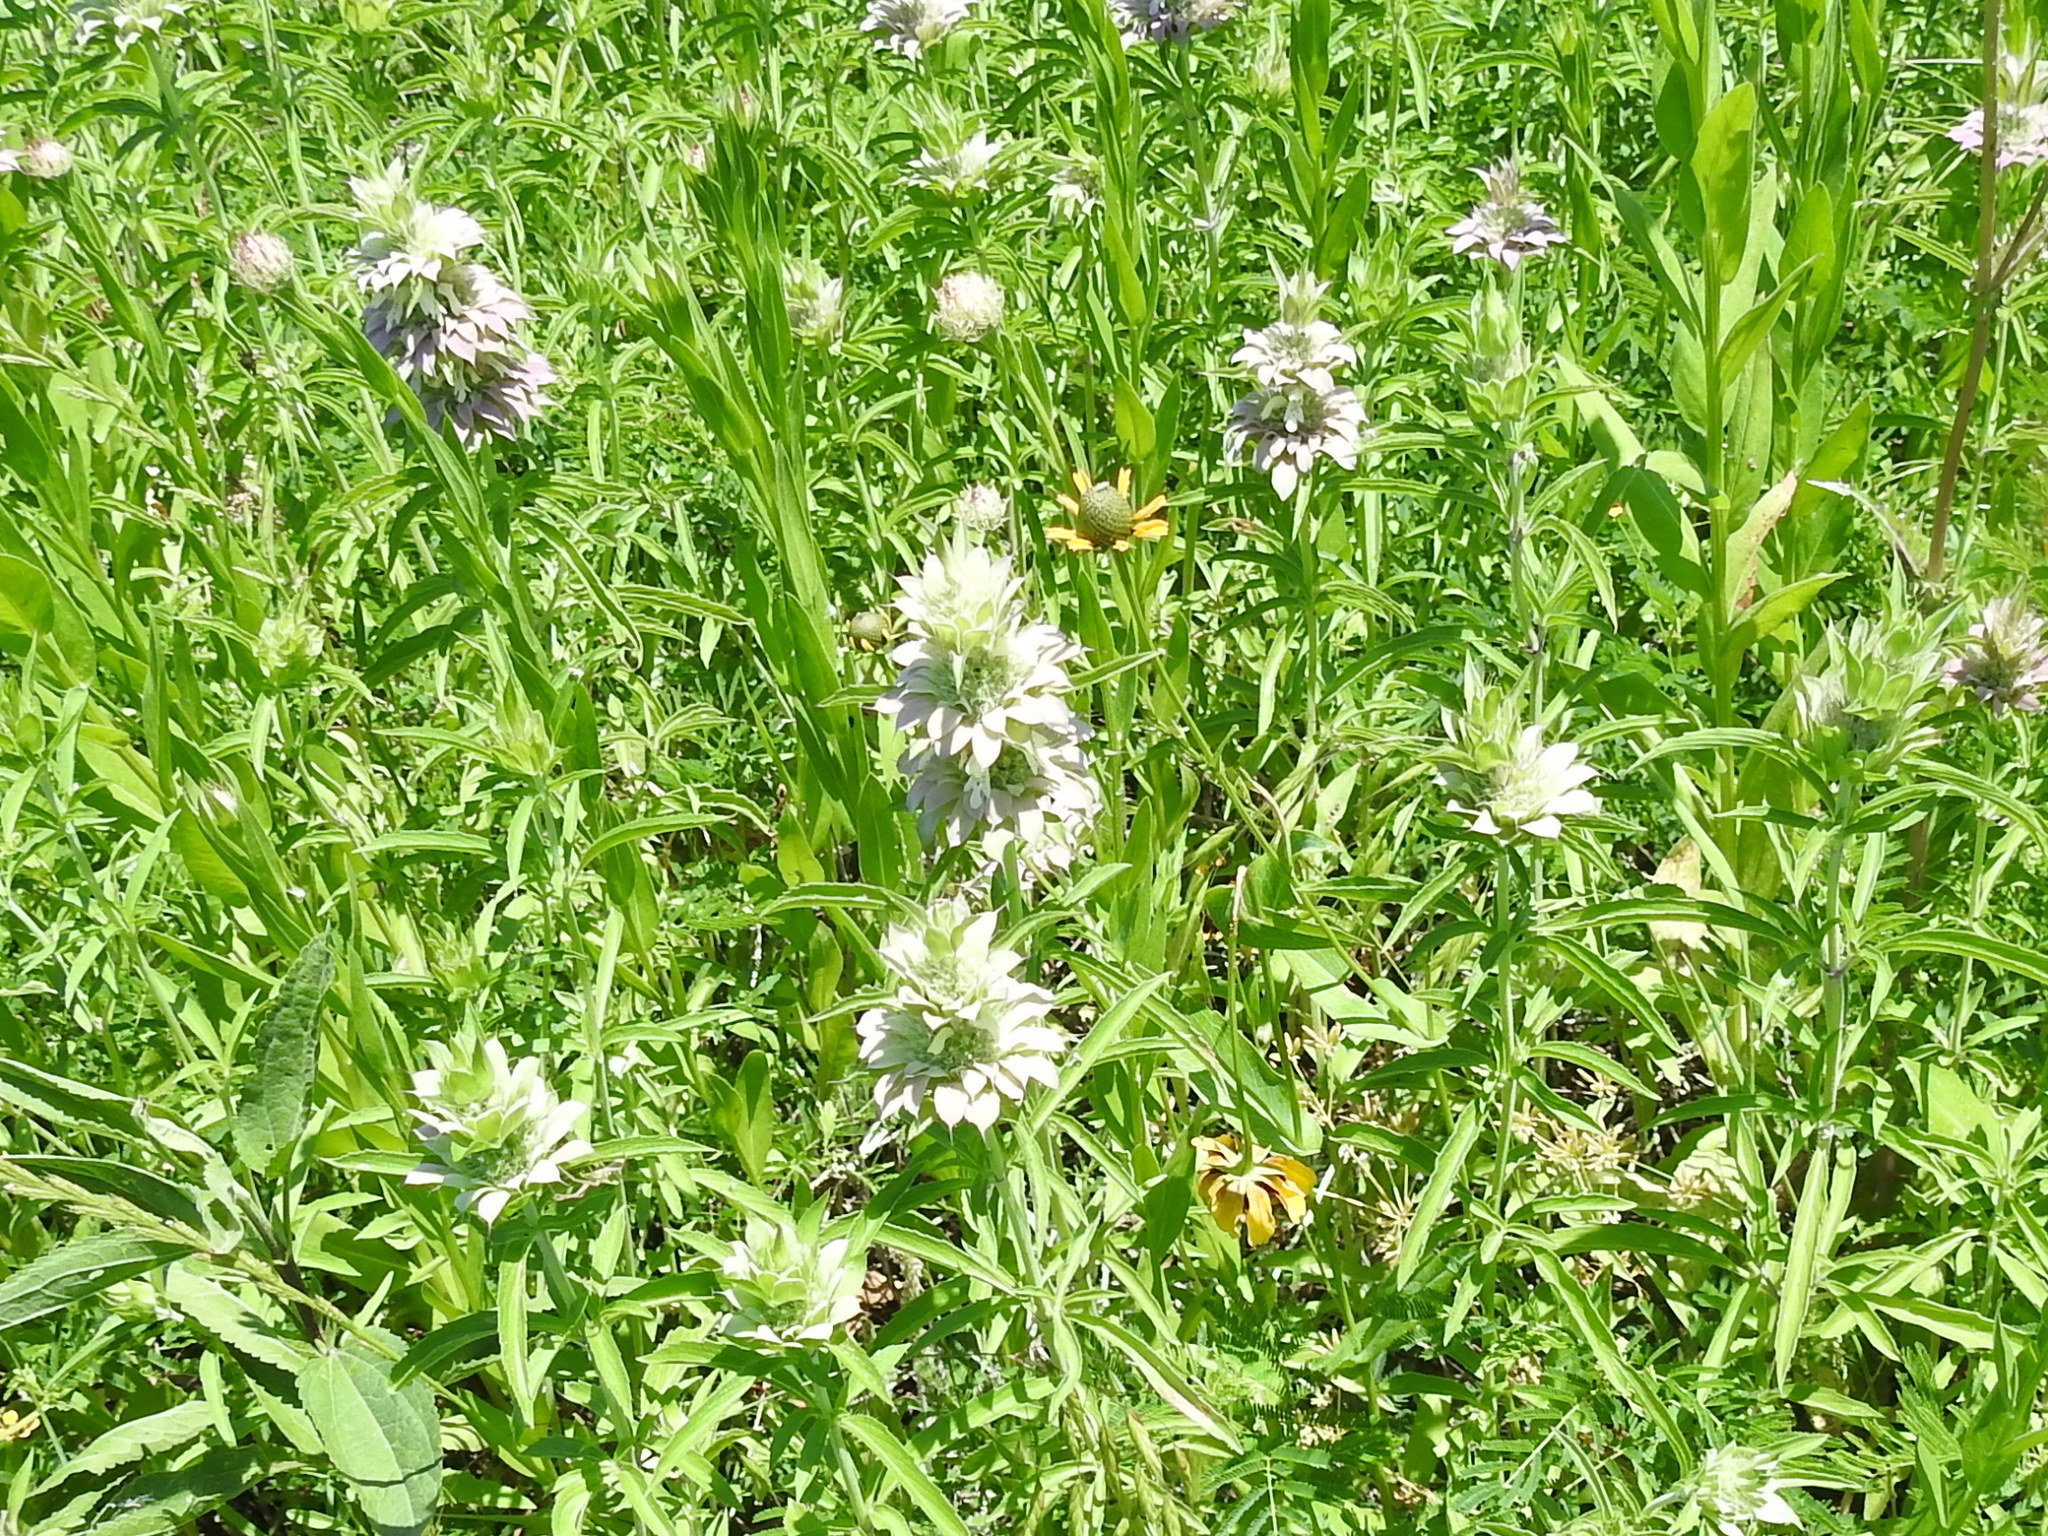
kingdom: Plantae
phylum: Tracheophyta
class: Magnoliopsida
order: Lamiales
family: Lamiaceae
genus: Monarda
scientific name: Monarda citriodora
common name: Lemon beebalm
